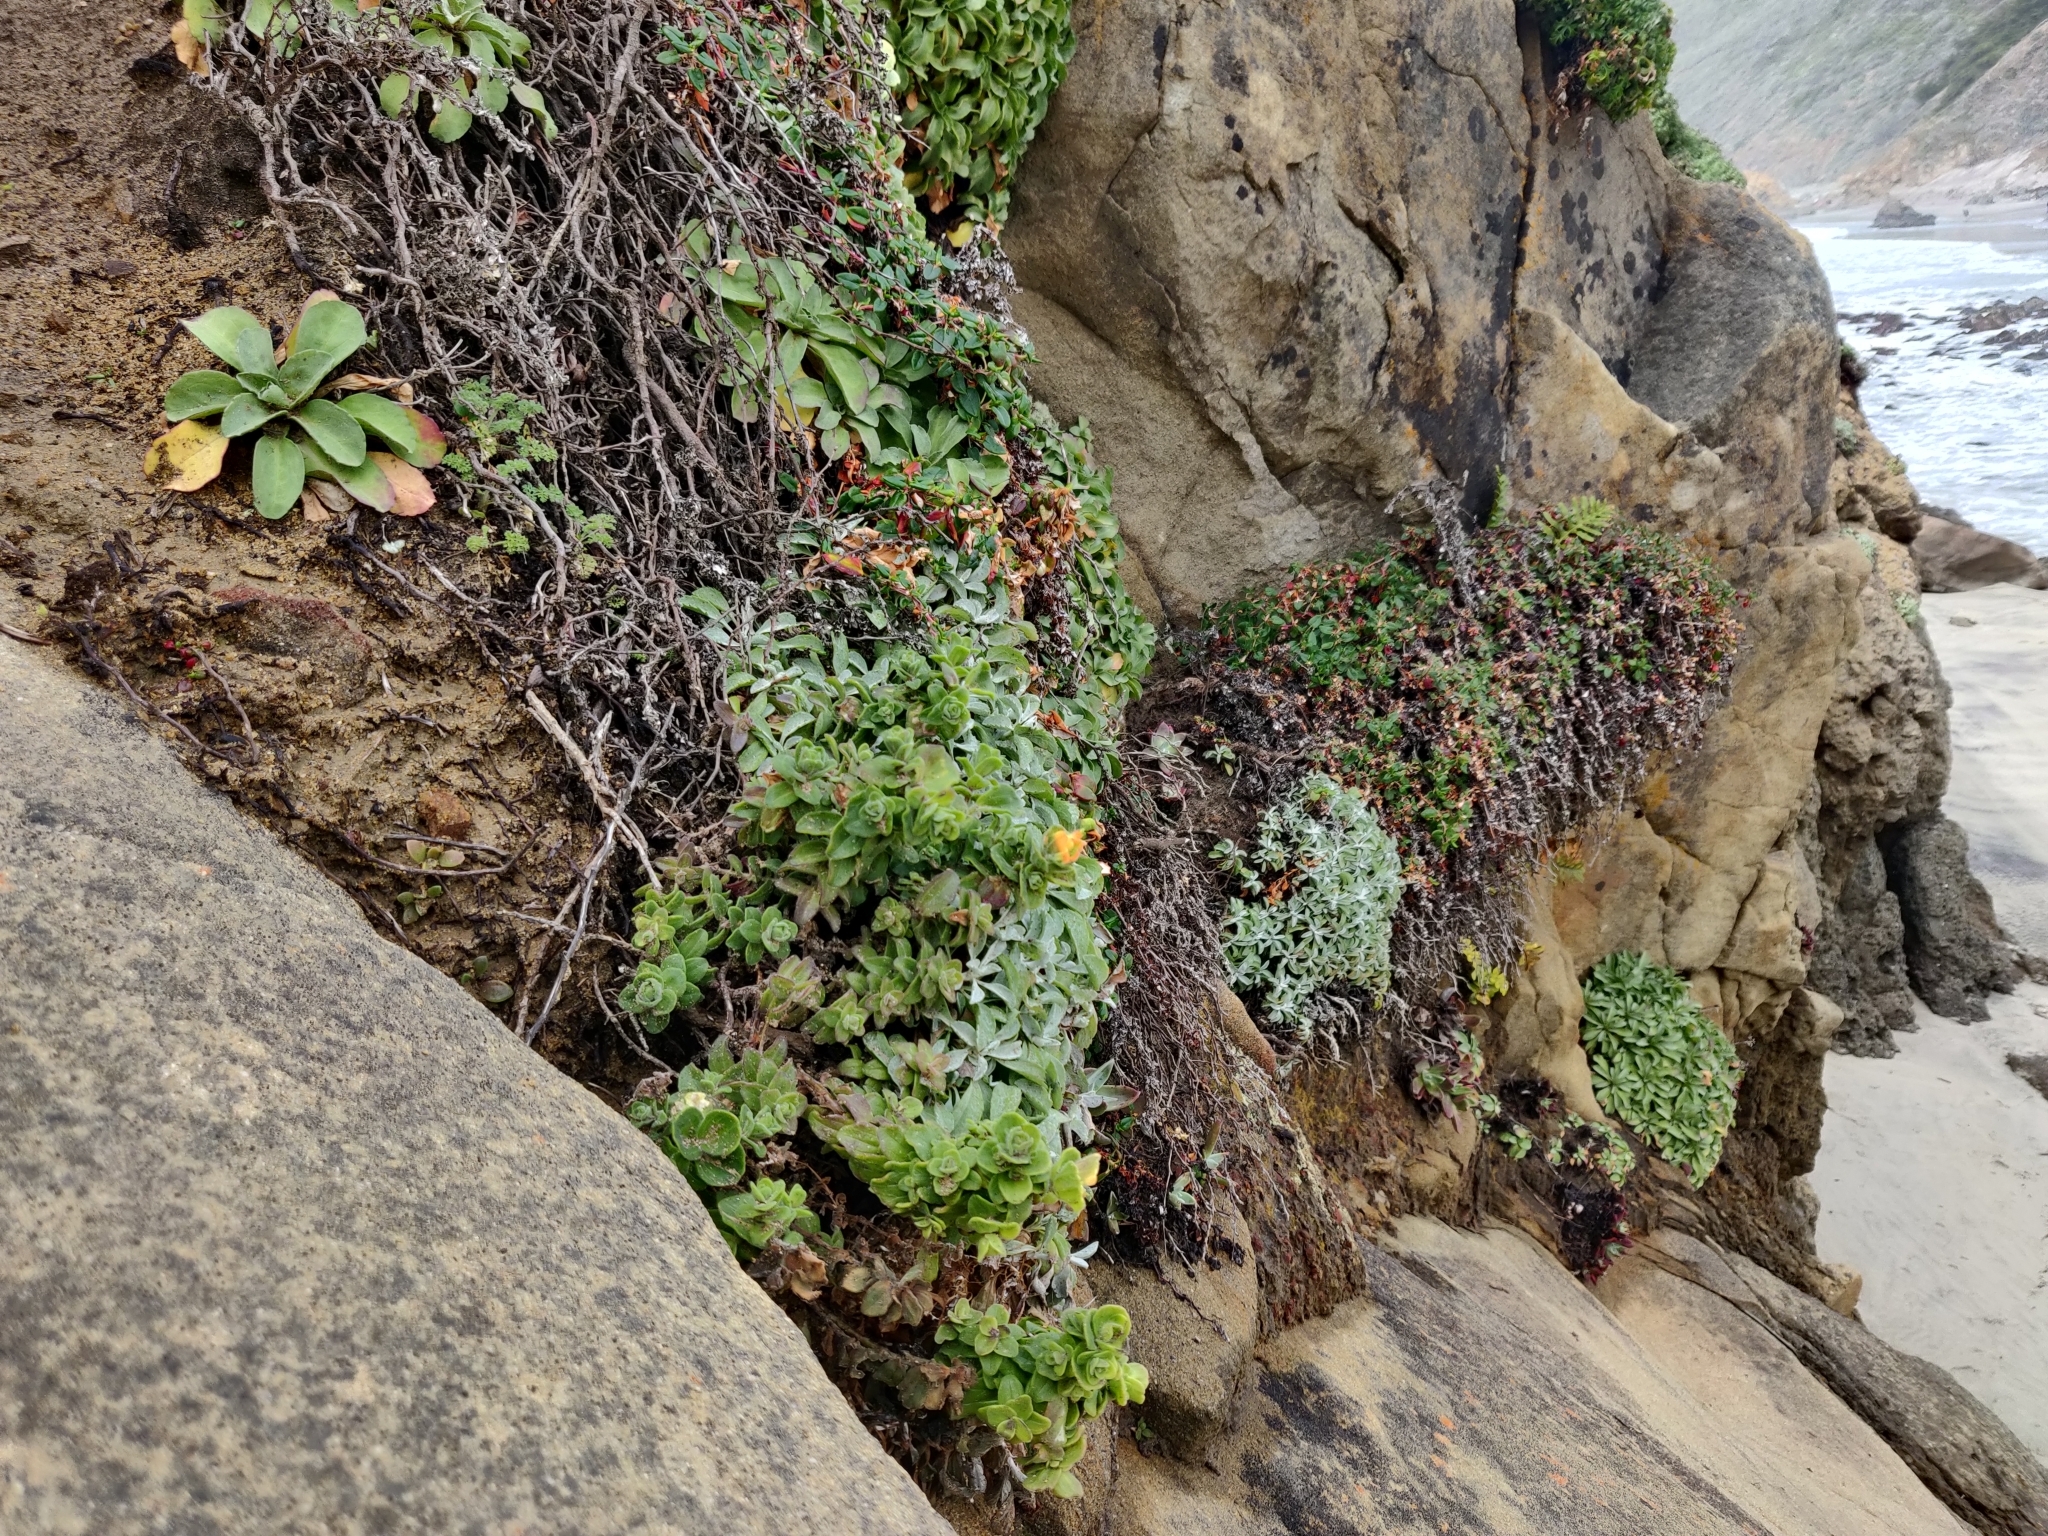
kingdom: Plantae
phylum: Tracheophyta
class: Magnoliopsida
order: Lamiales
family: Orobanchaceae
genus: Castilleja
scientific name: Castilleja latifolia
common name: Monterey indian paintbrush
